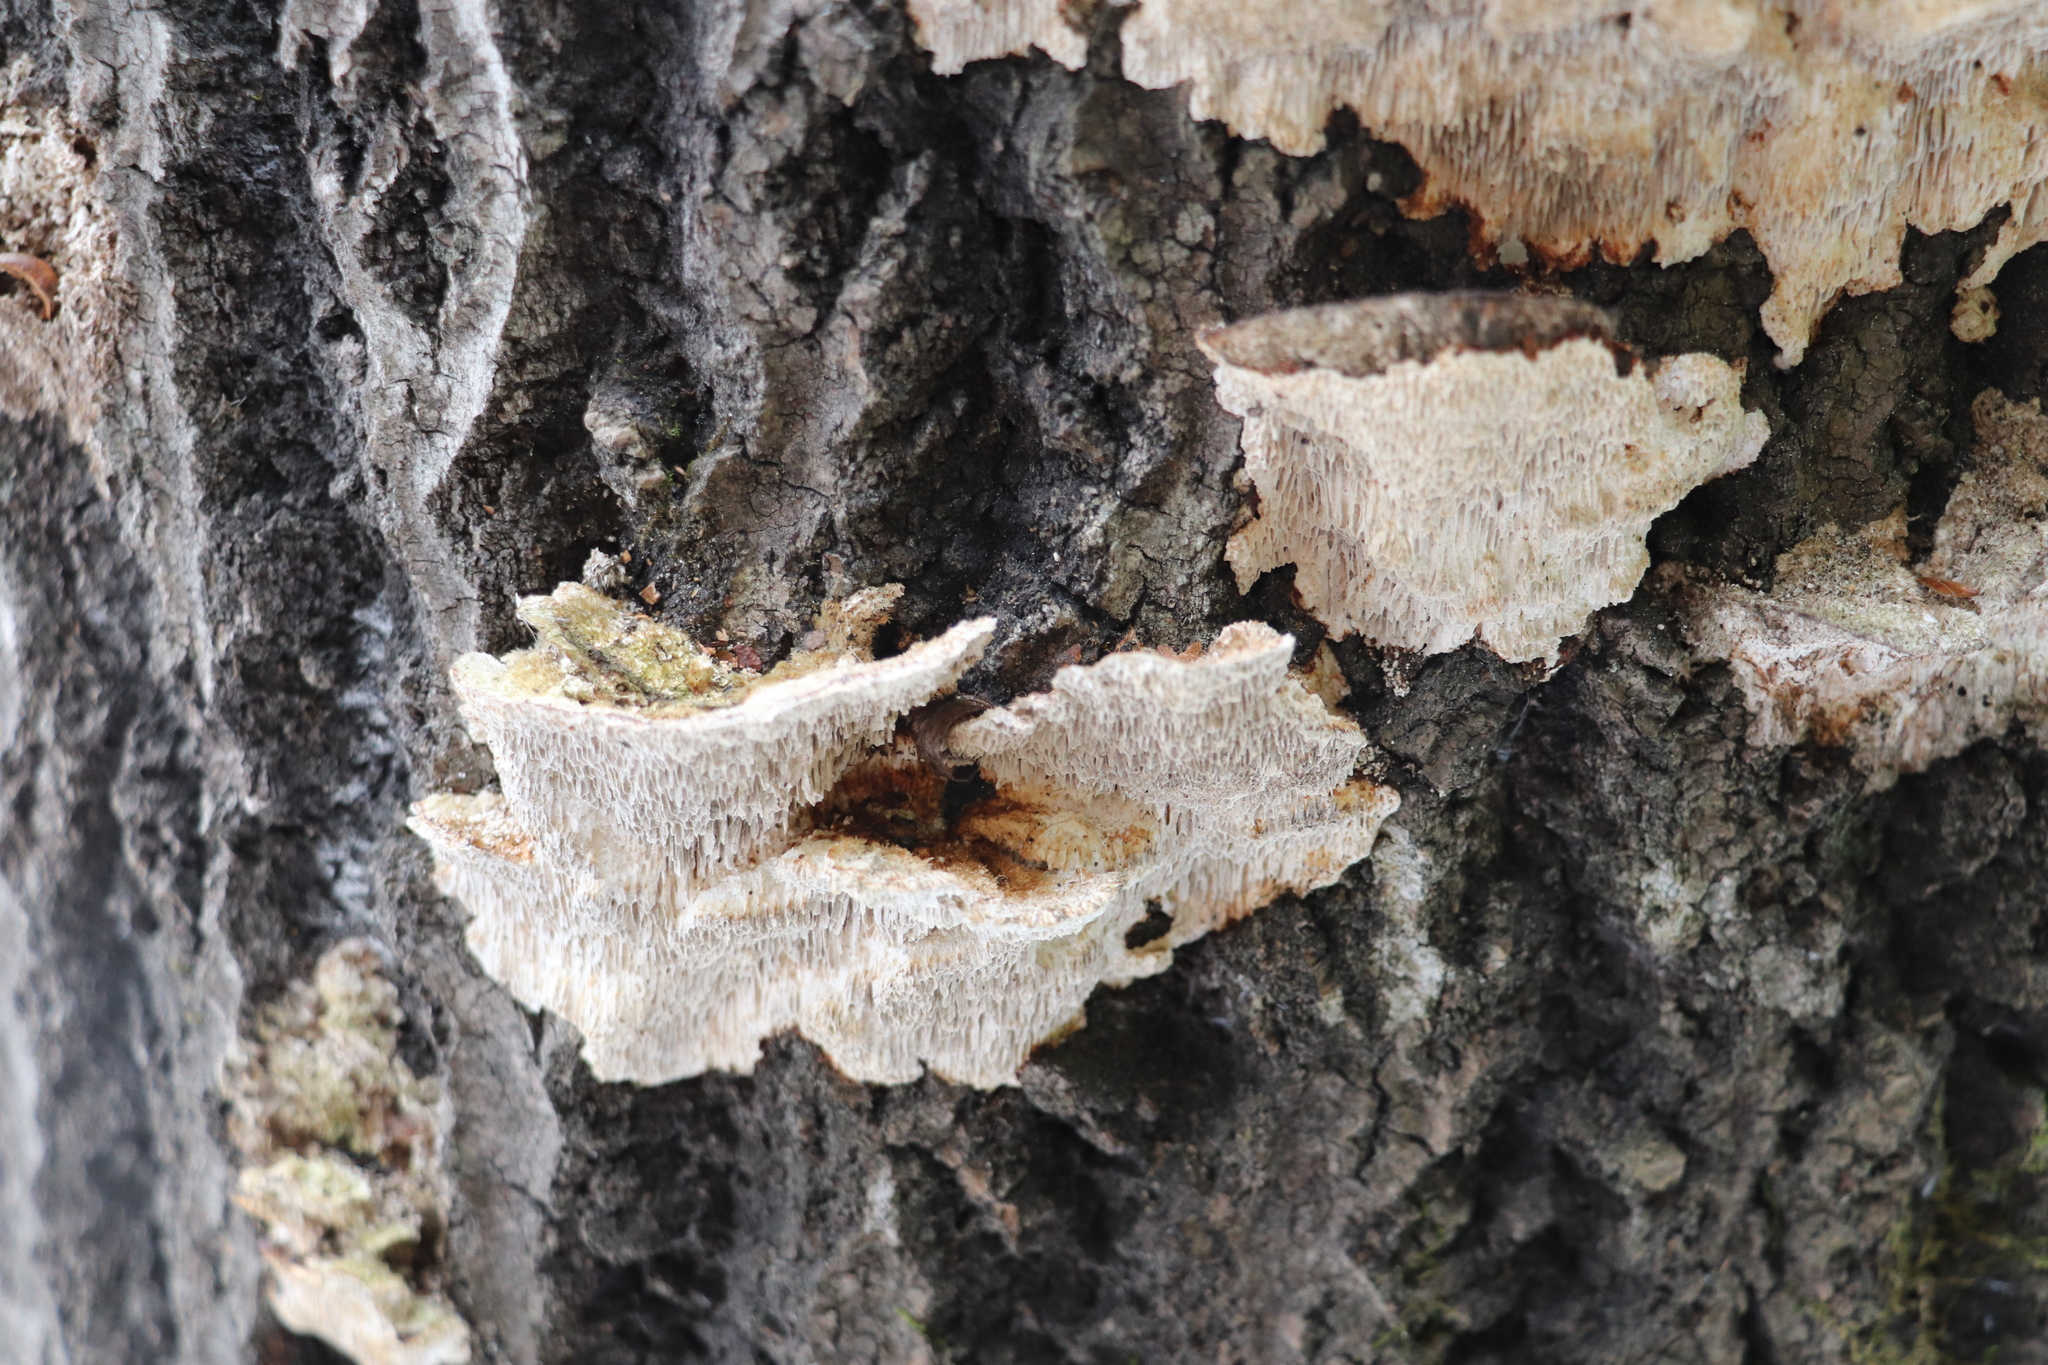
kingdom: Fungi
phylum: Basidiomycota
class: Agaricomycetes
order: Polyporales
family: Polyporaceae
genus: Trametes
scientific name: Trametes trogii
